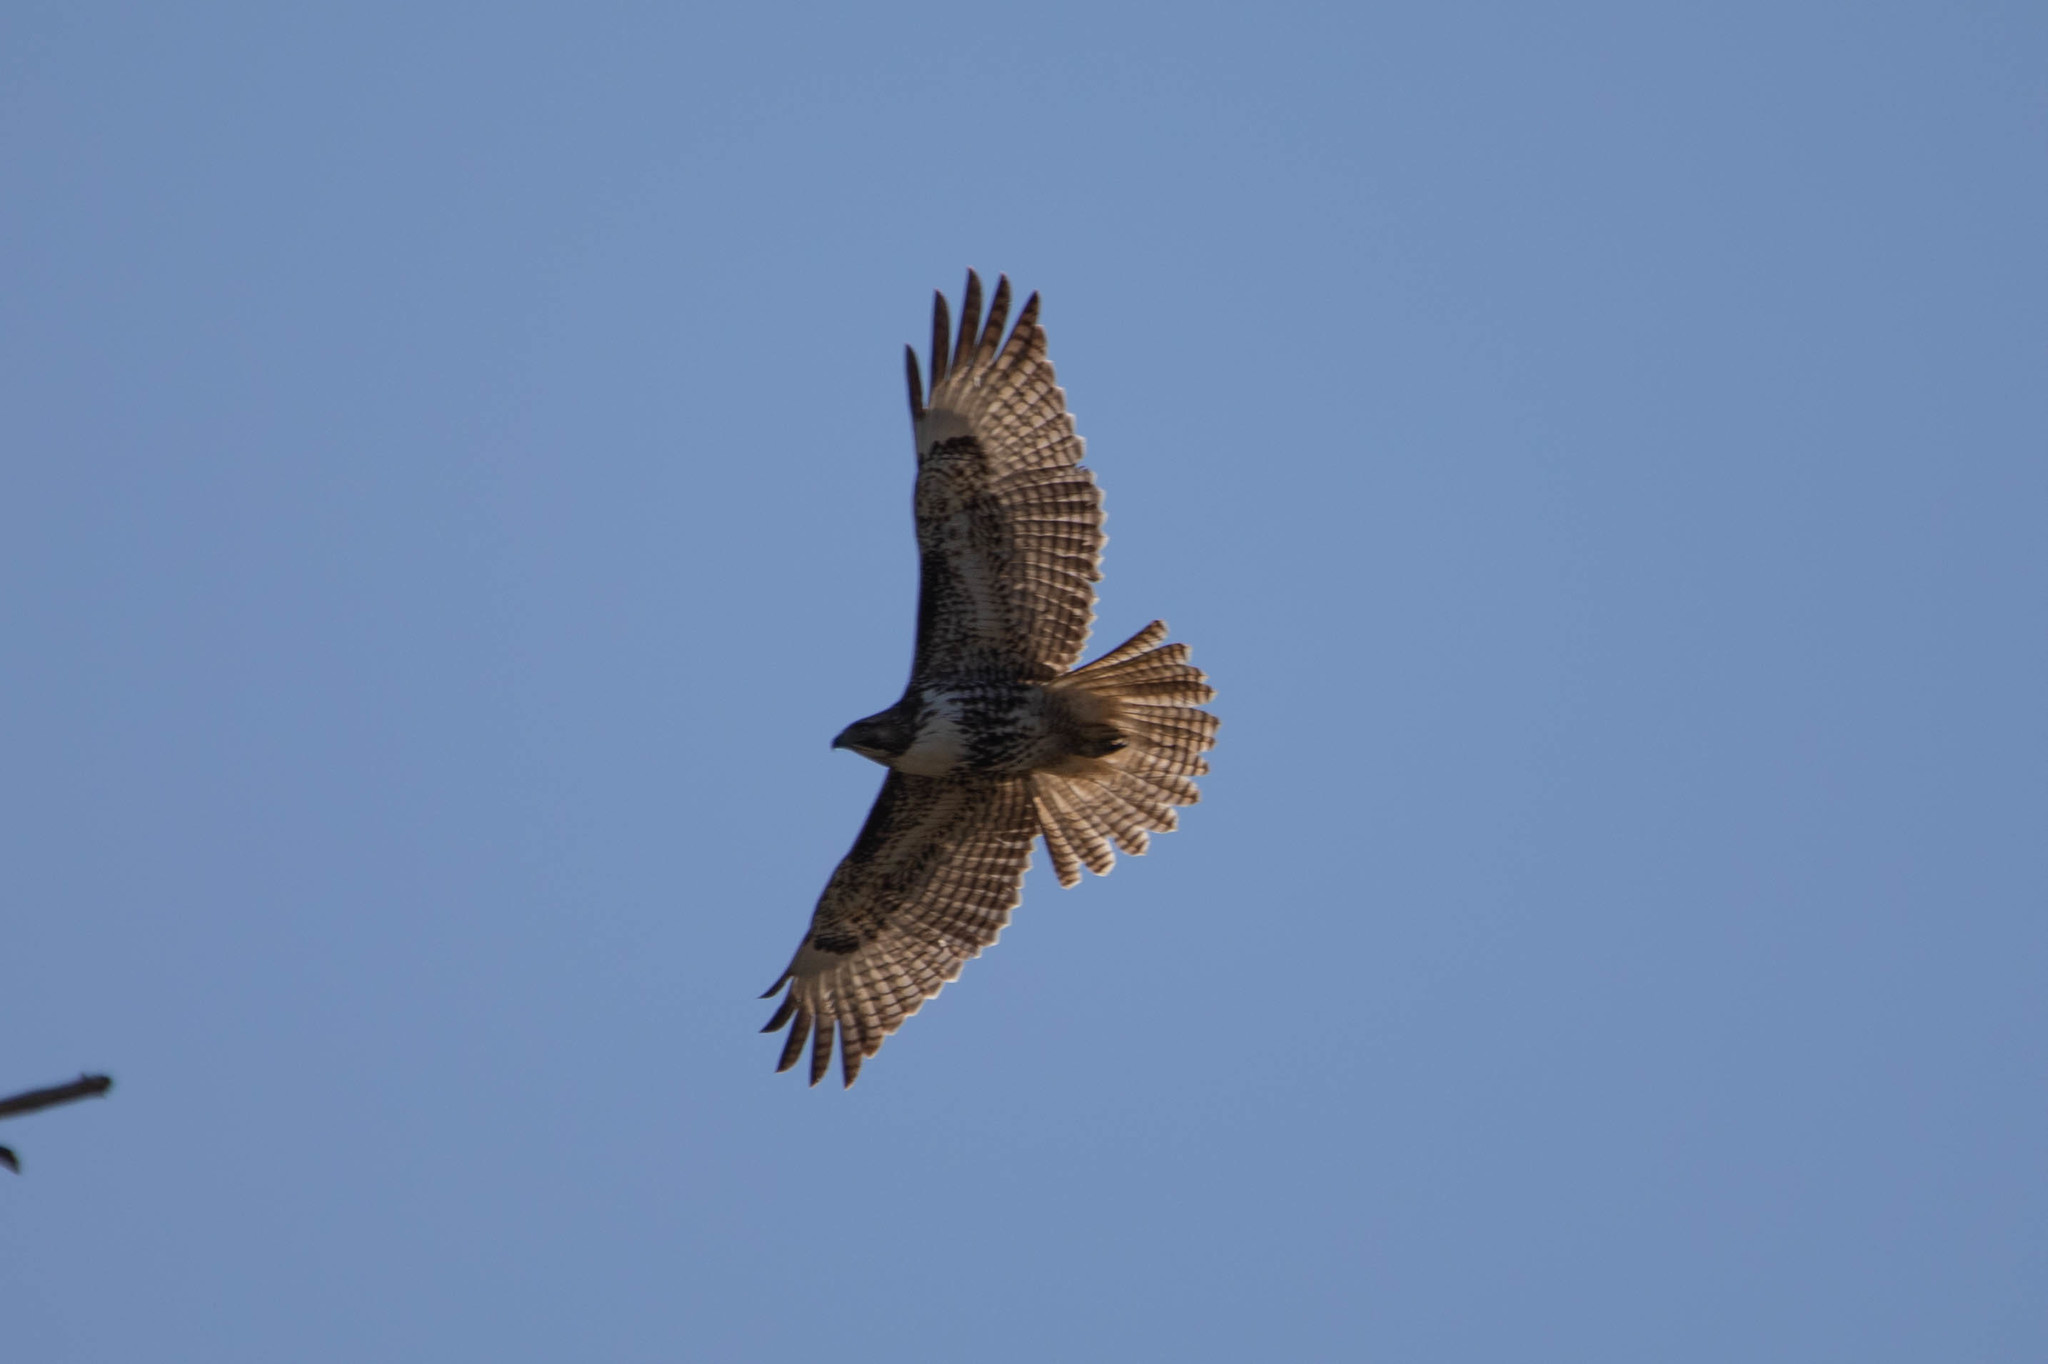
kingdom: Animalia
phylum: Chordata
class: Aves
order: Accipitriformes
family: Accipitridae
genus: Buteo
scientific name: Buteo jamaicensis
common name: Red-tailed hawk
